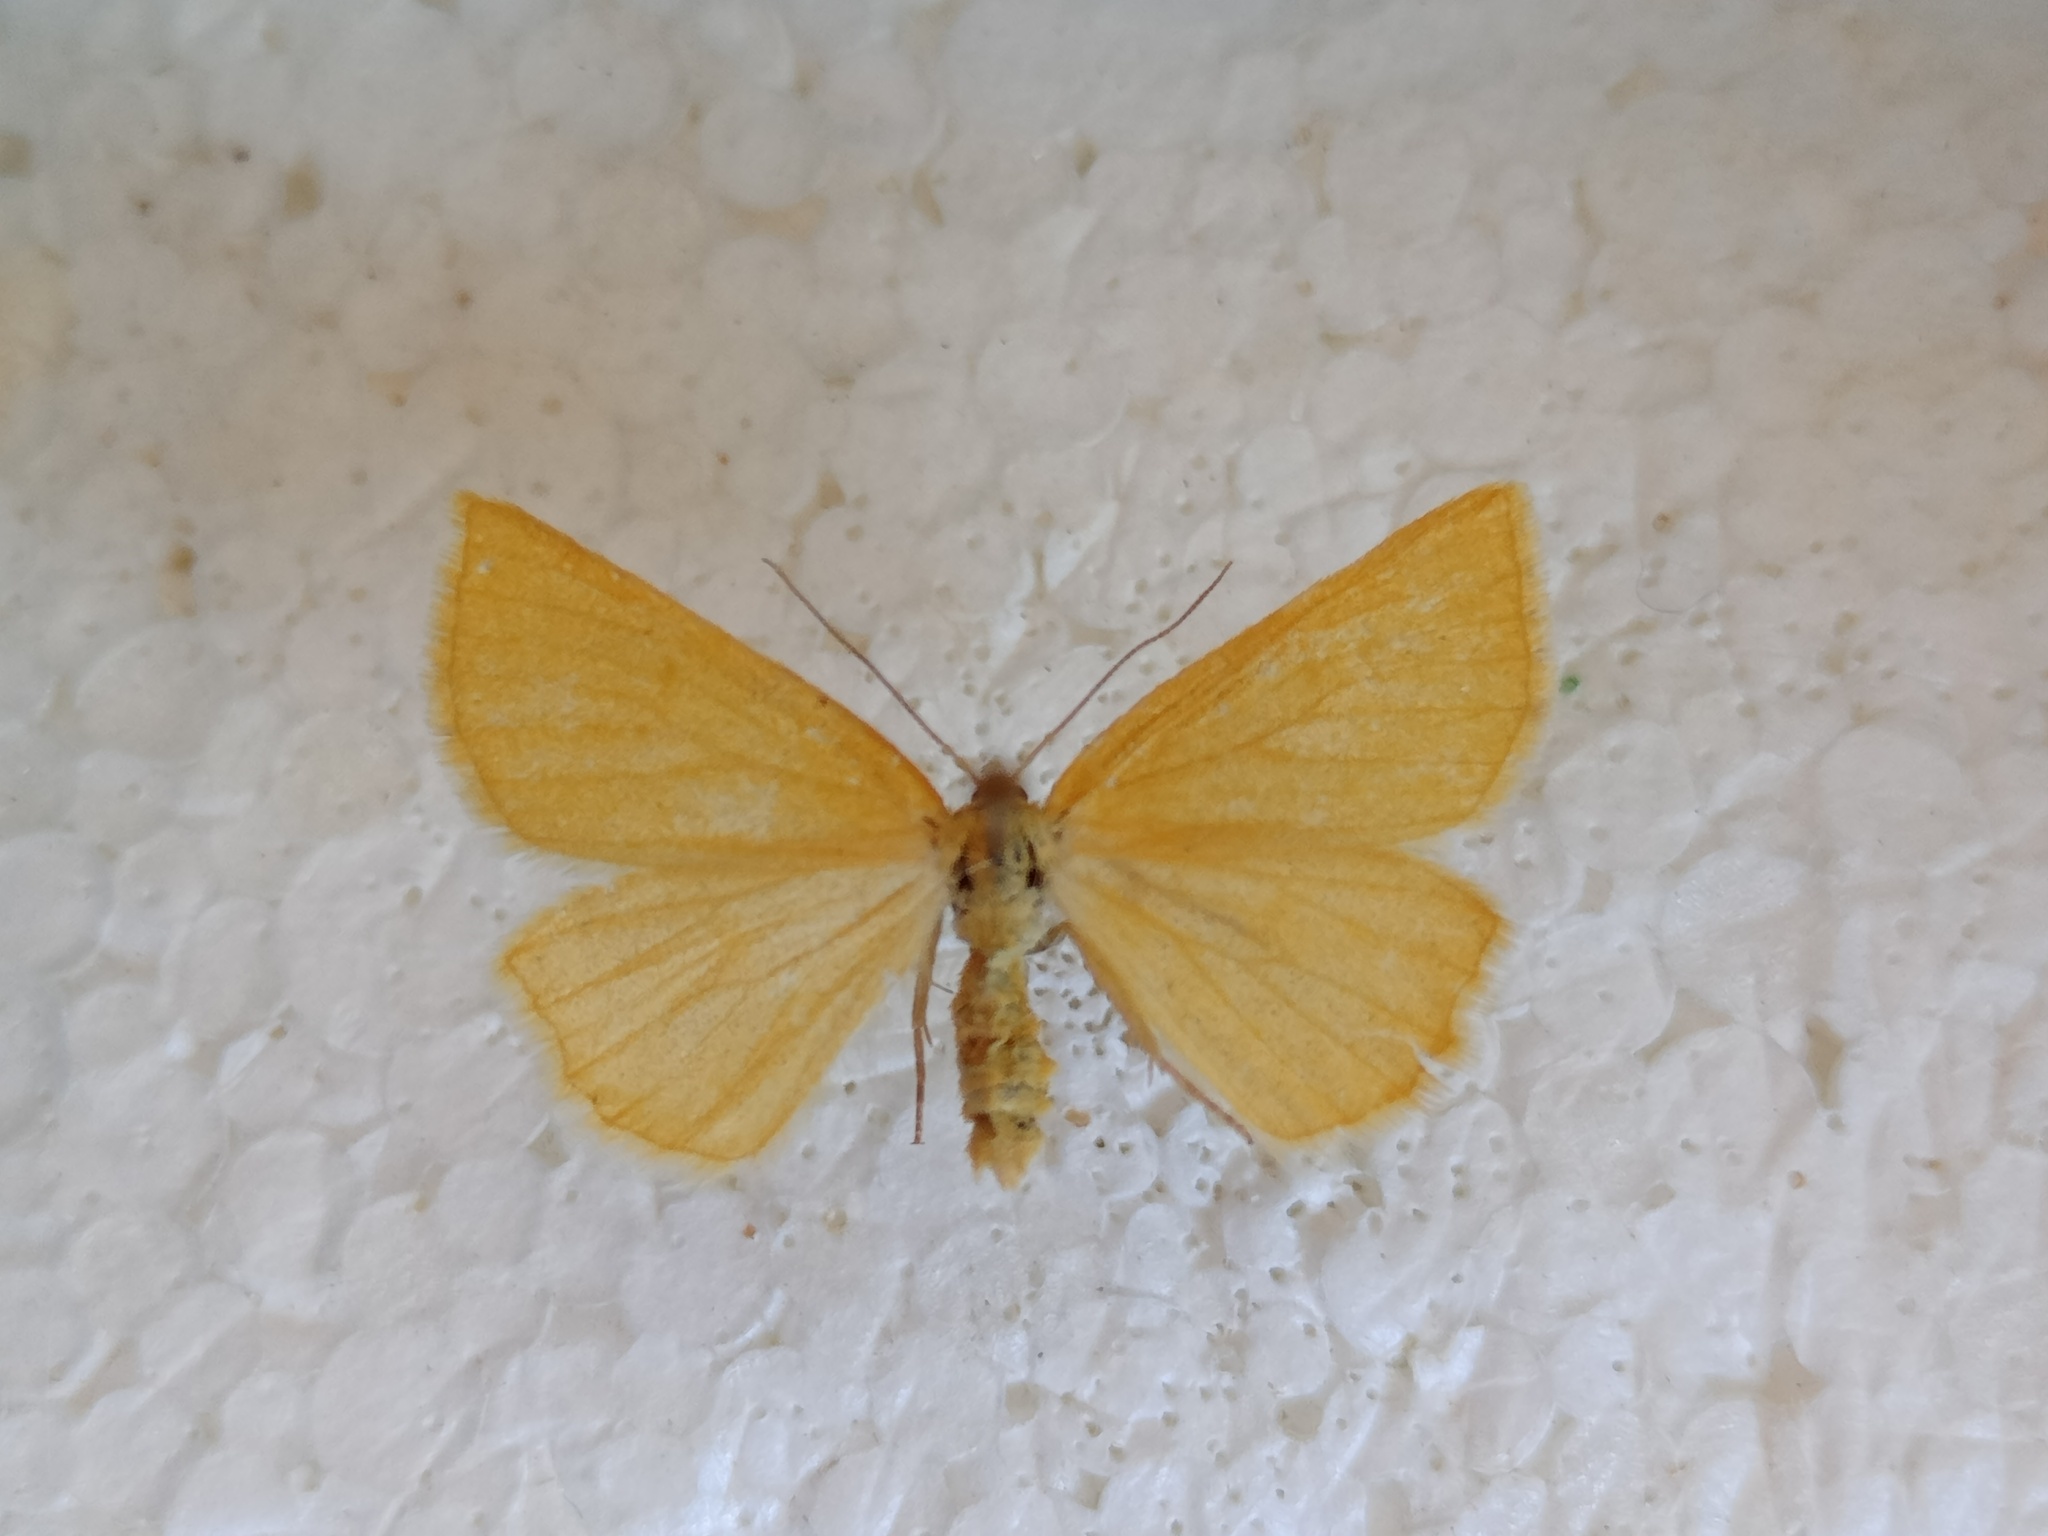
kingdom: Animalia
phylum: Arthropoda
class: Insecta
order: Lepidoptera
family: Geometridae
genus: Crocota
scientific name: Crocota tinctaria
